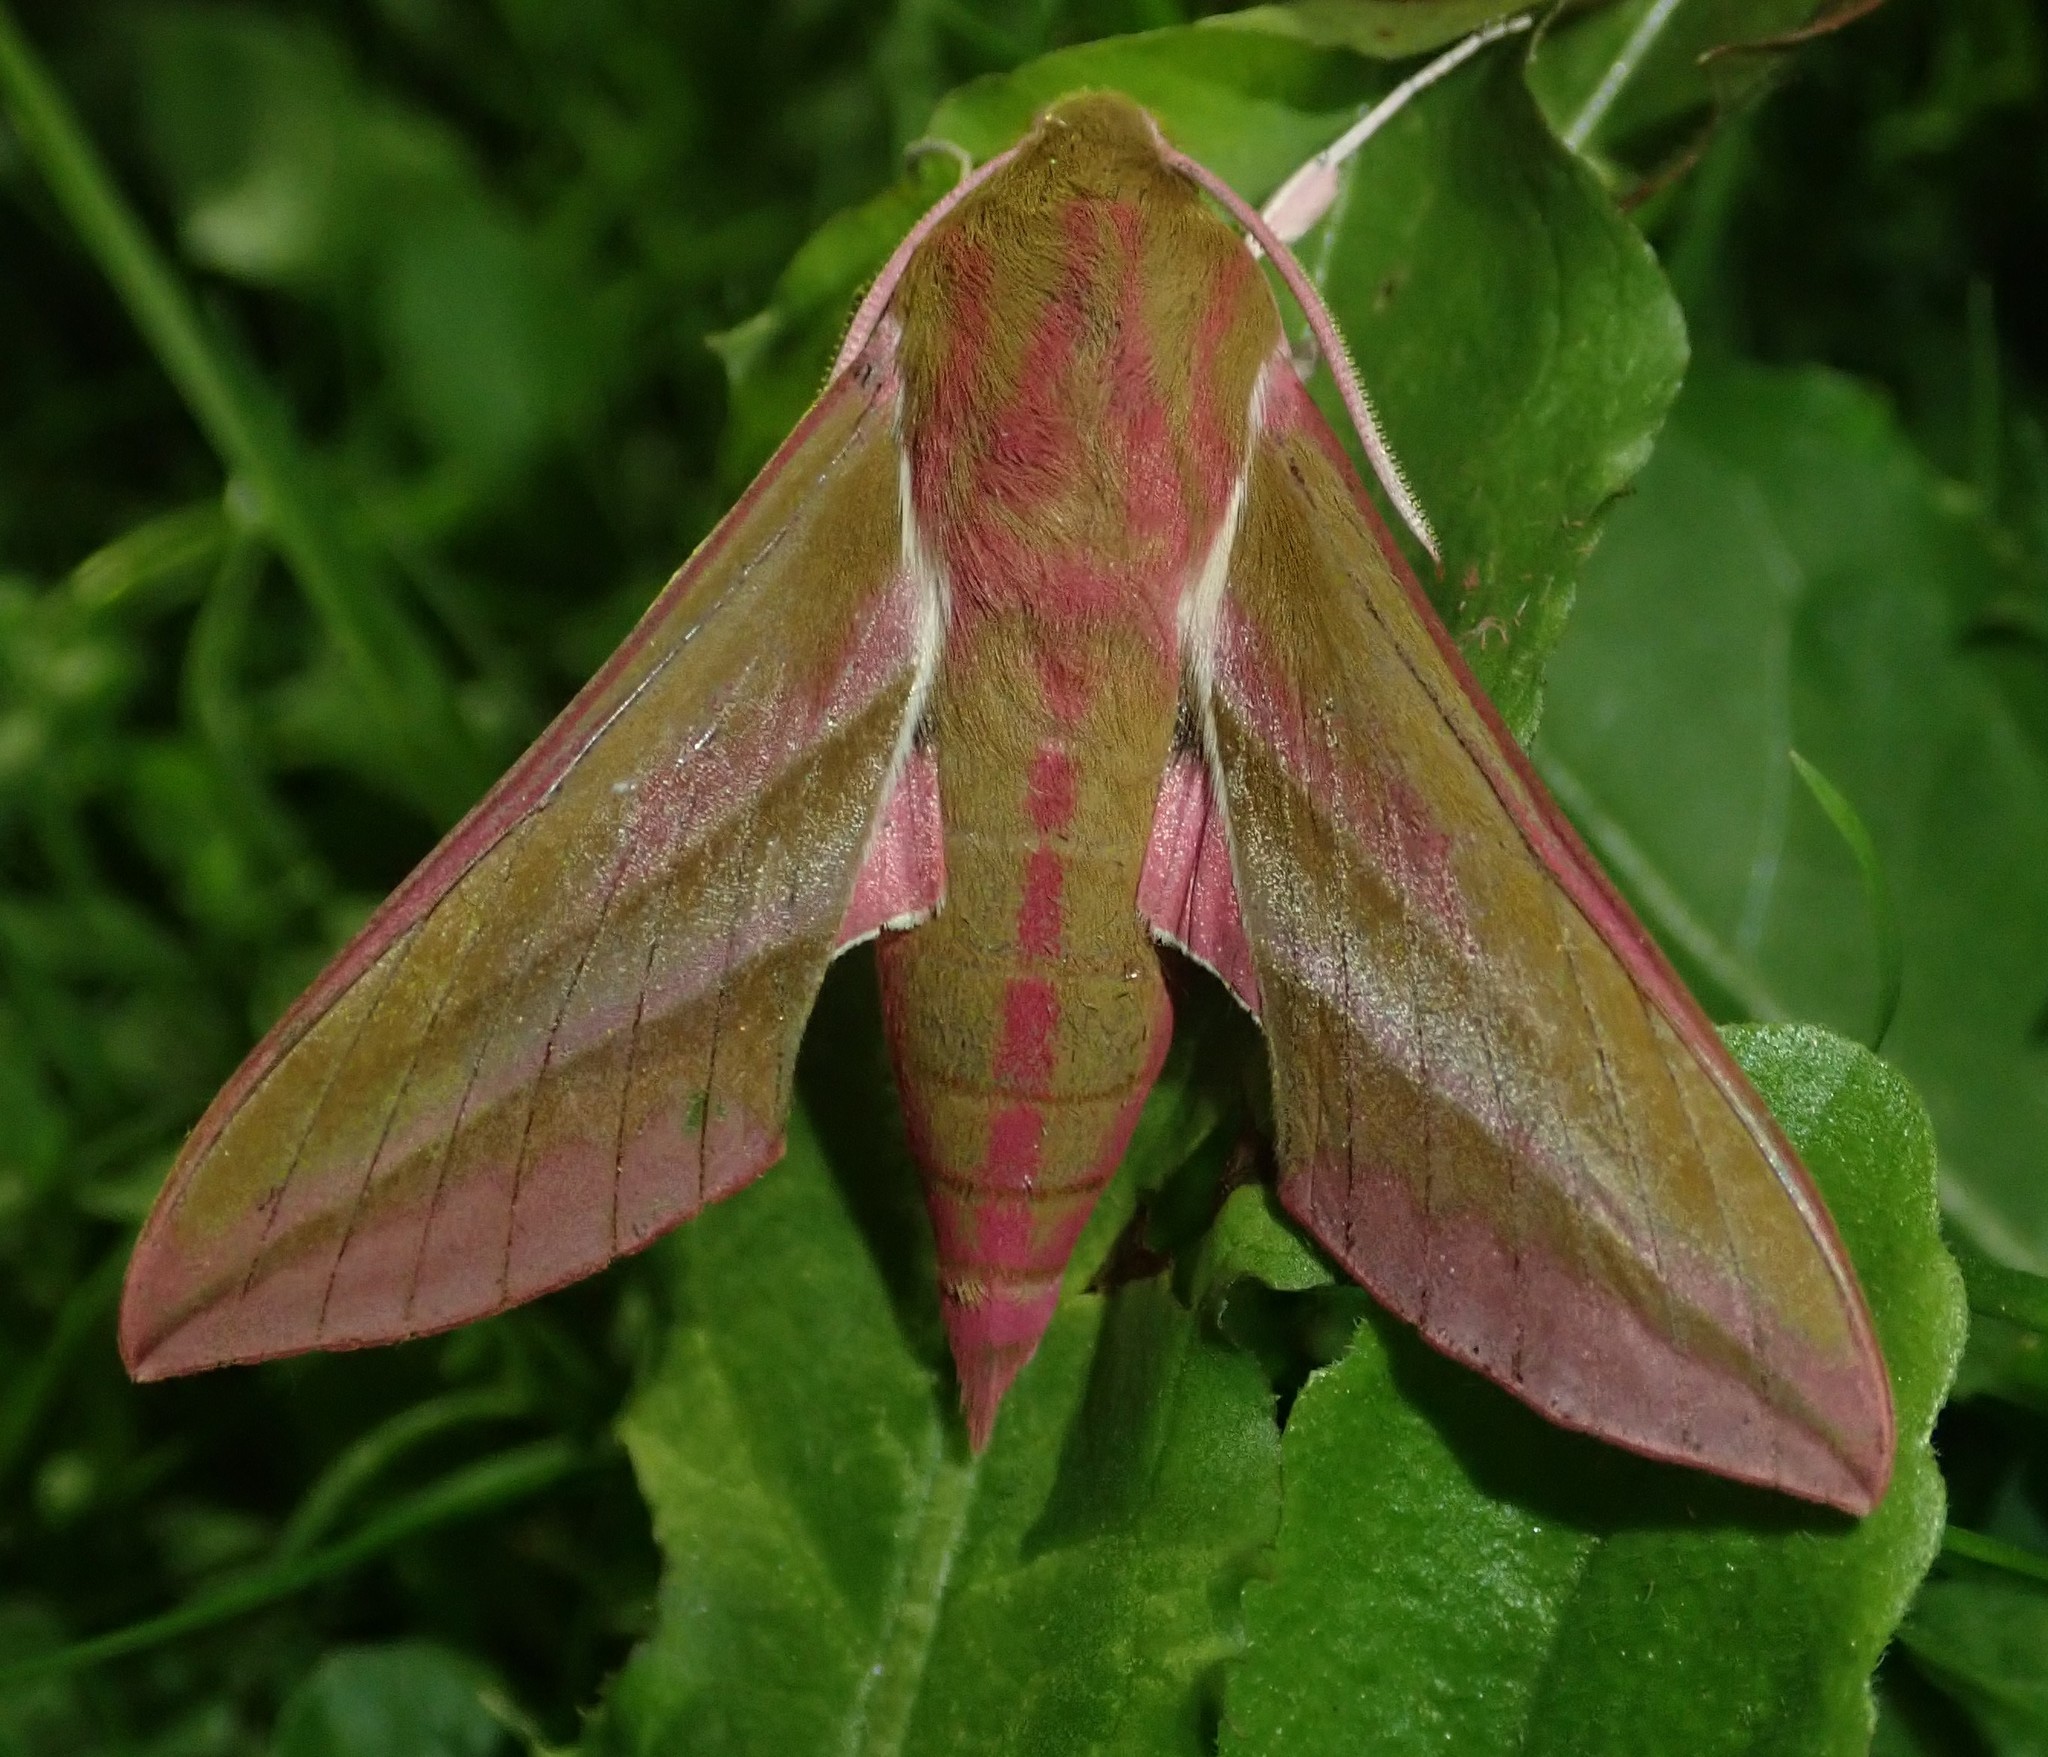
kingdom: Animalia
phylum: Arthropoda
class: Insecta
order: Lepidoptera
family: Sphingidae
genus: Deilephila
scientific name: Deilephila elpenor
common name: Elephant hawk-moth
